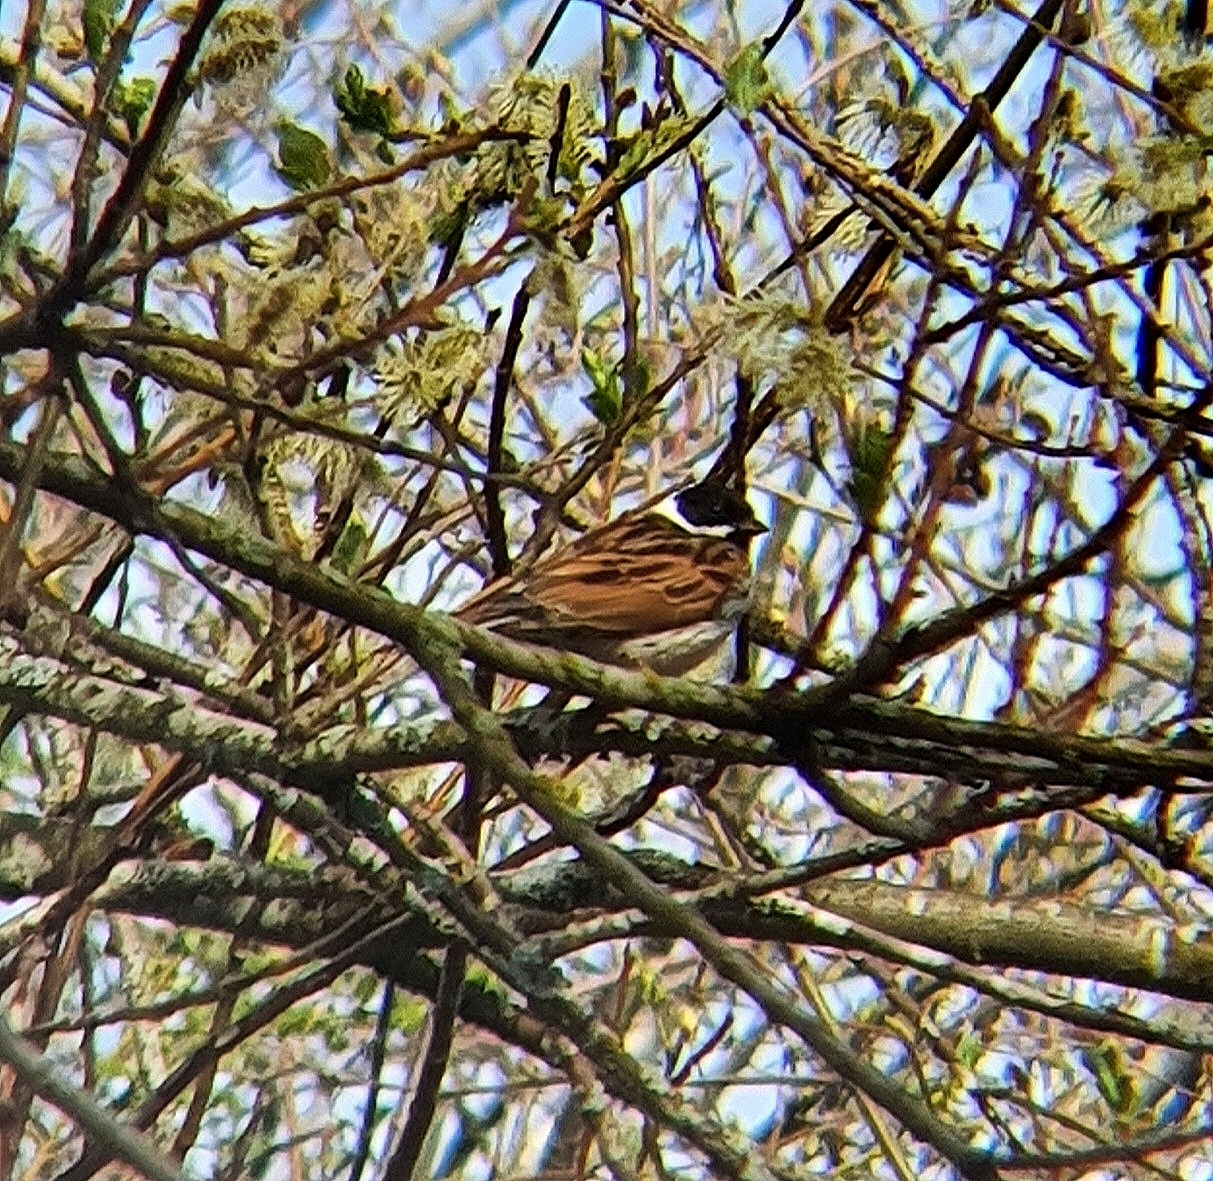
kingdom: Animalia
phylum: Chordata
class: Aves
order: Passeriformes
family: Emberizidae
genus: Emberiza
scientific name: Emberiza schoeniclus
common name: Reed bunting
